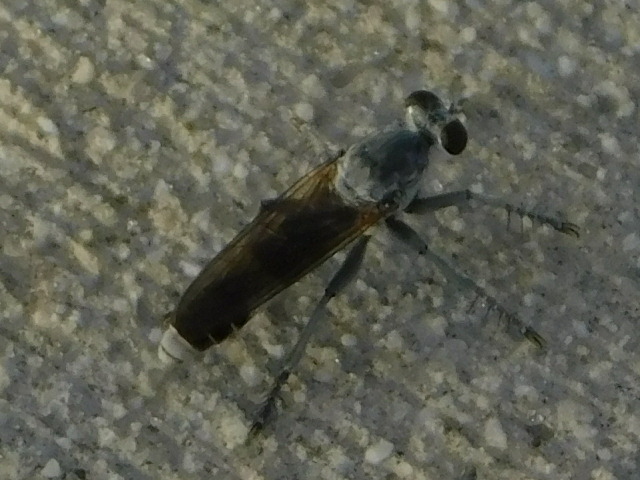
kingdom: Animalia
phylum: Arthropoda
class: Insecta
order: Diptera
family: Asilidae
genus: Stichopogon
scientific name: Stichopogon trifasciatus
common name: Three-banded robber fly
